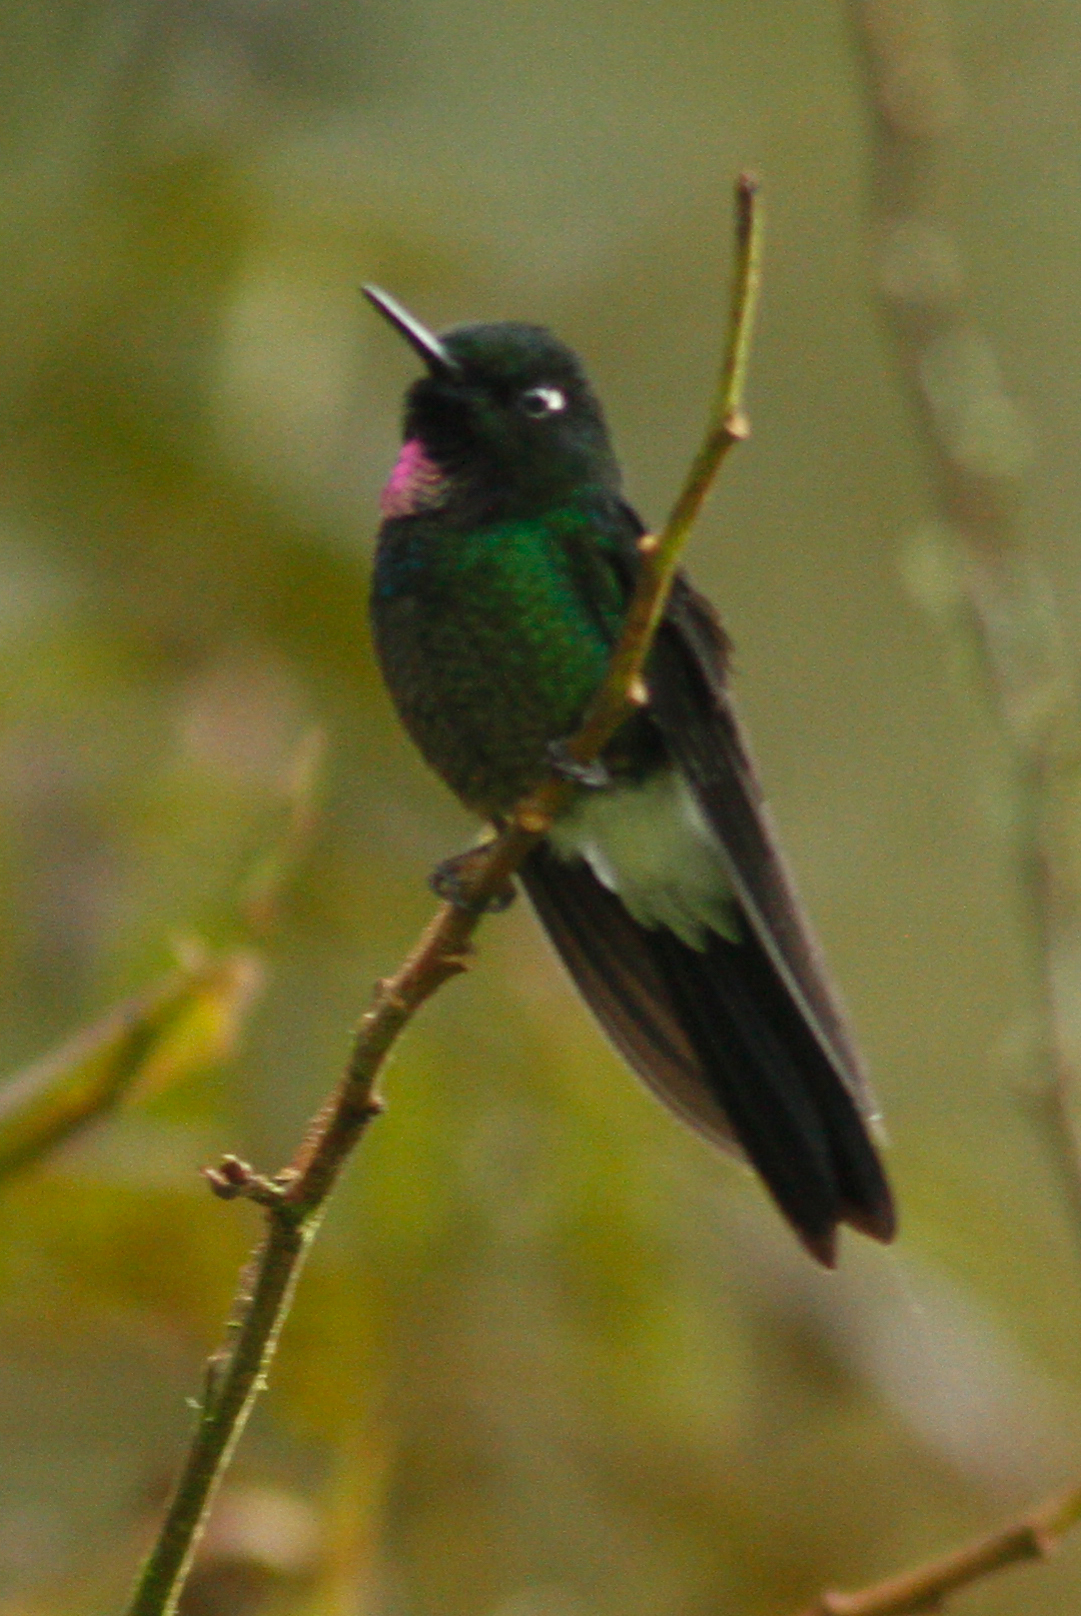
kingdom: Animalia
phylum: Chordata
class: Aves
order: Apodiformes
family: Trochilidae
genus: Heliangelus
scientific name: Heliangelus exortis
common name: Tourmaline sunangel
